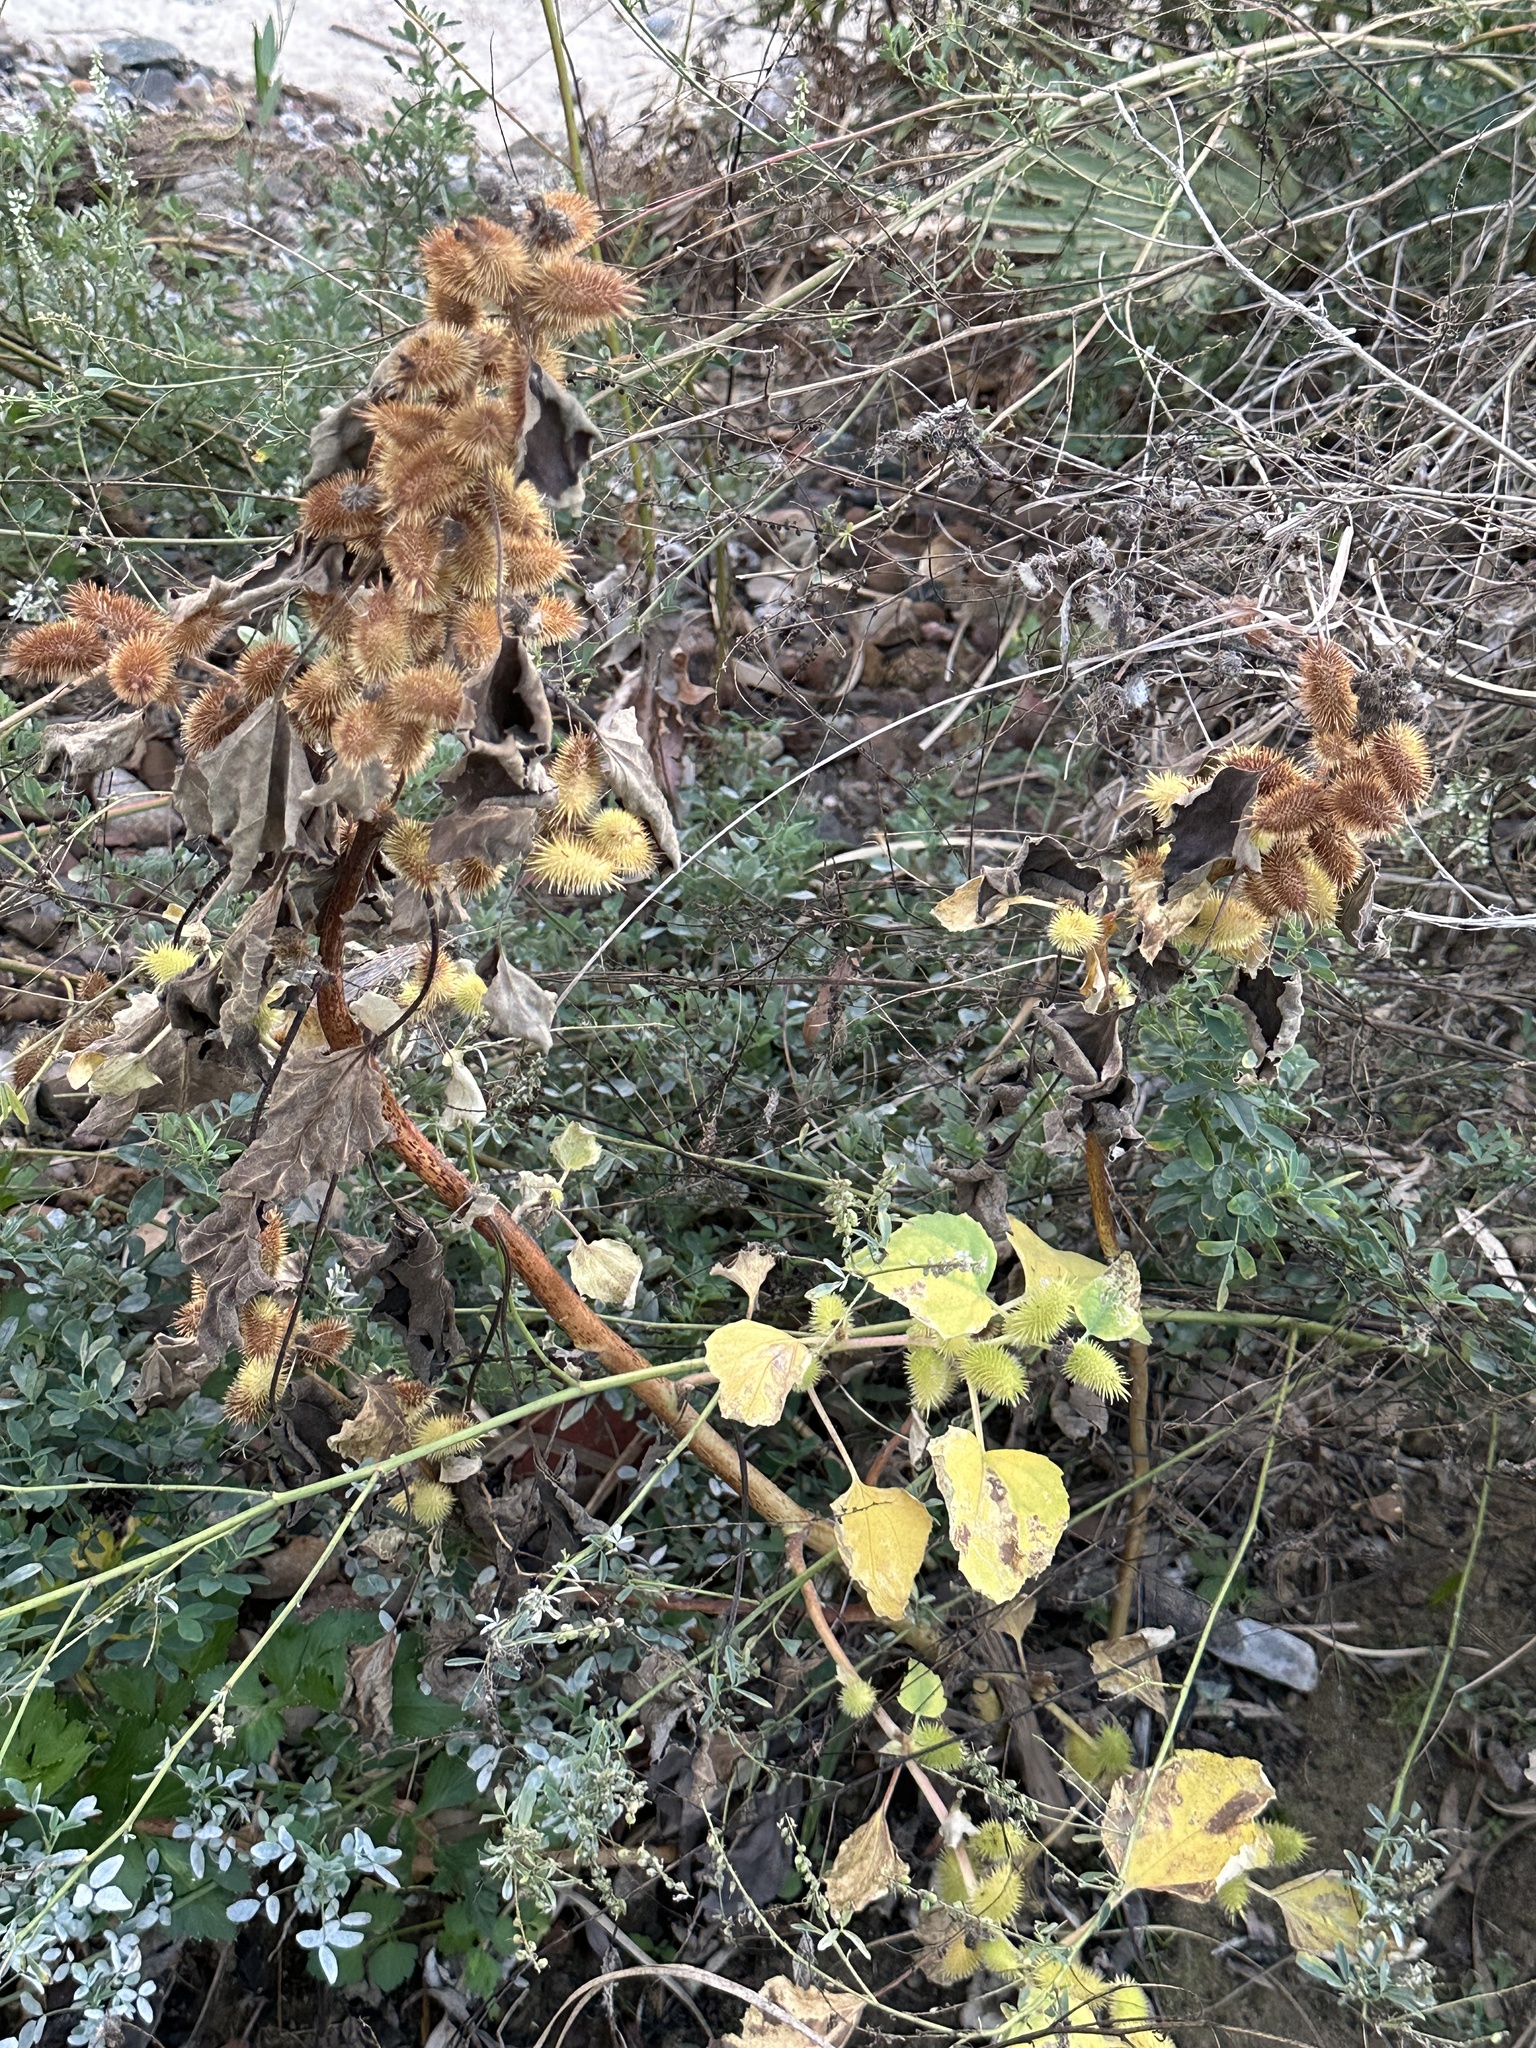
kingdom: Plantae
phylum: Tracheophyta
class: Magnoliopsida
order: Asterales
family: Asteraceae
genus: Xanthium
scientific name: Xanthium strumarium
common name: Rough cocklebur
